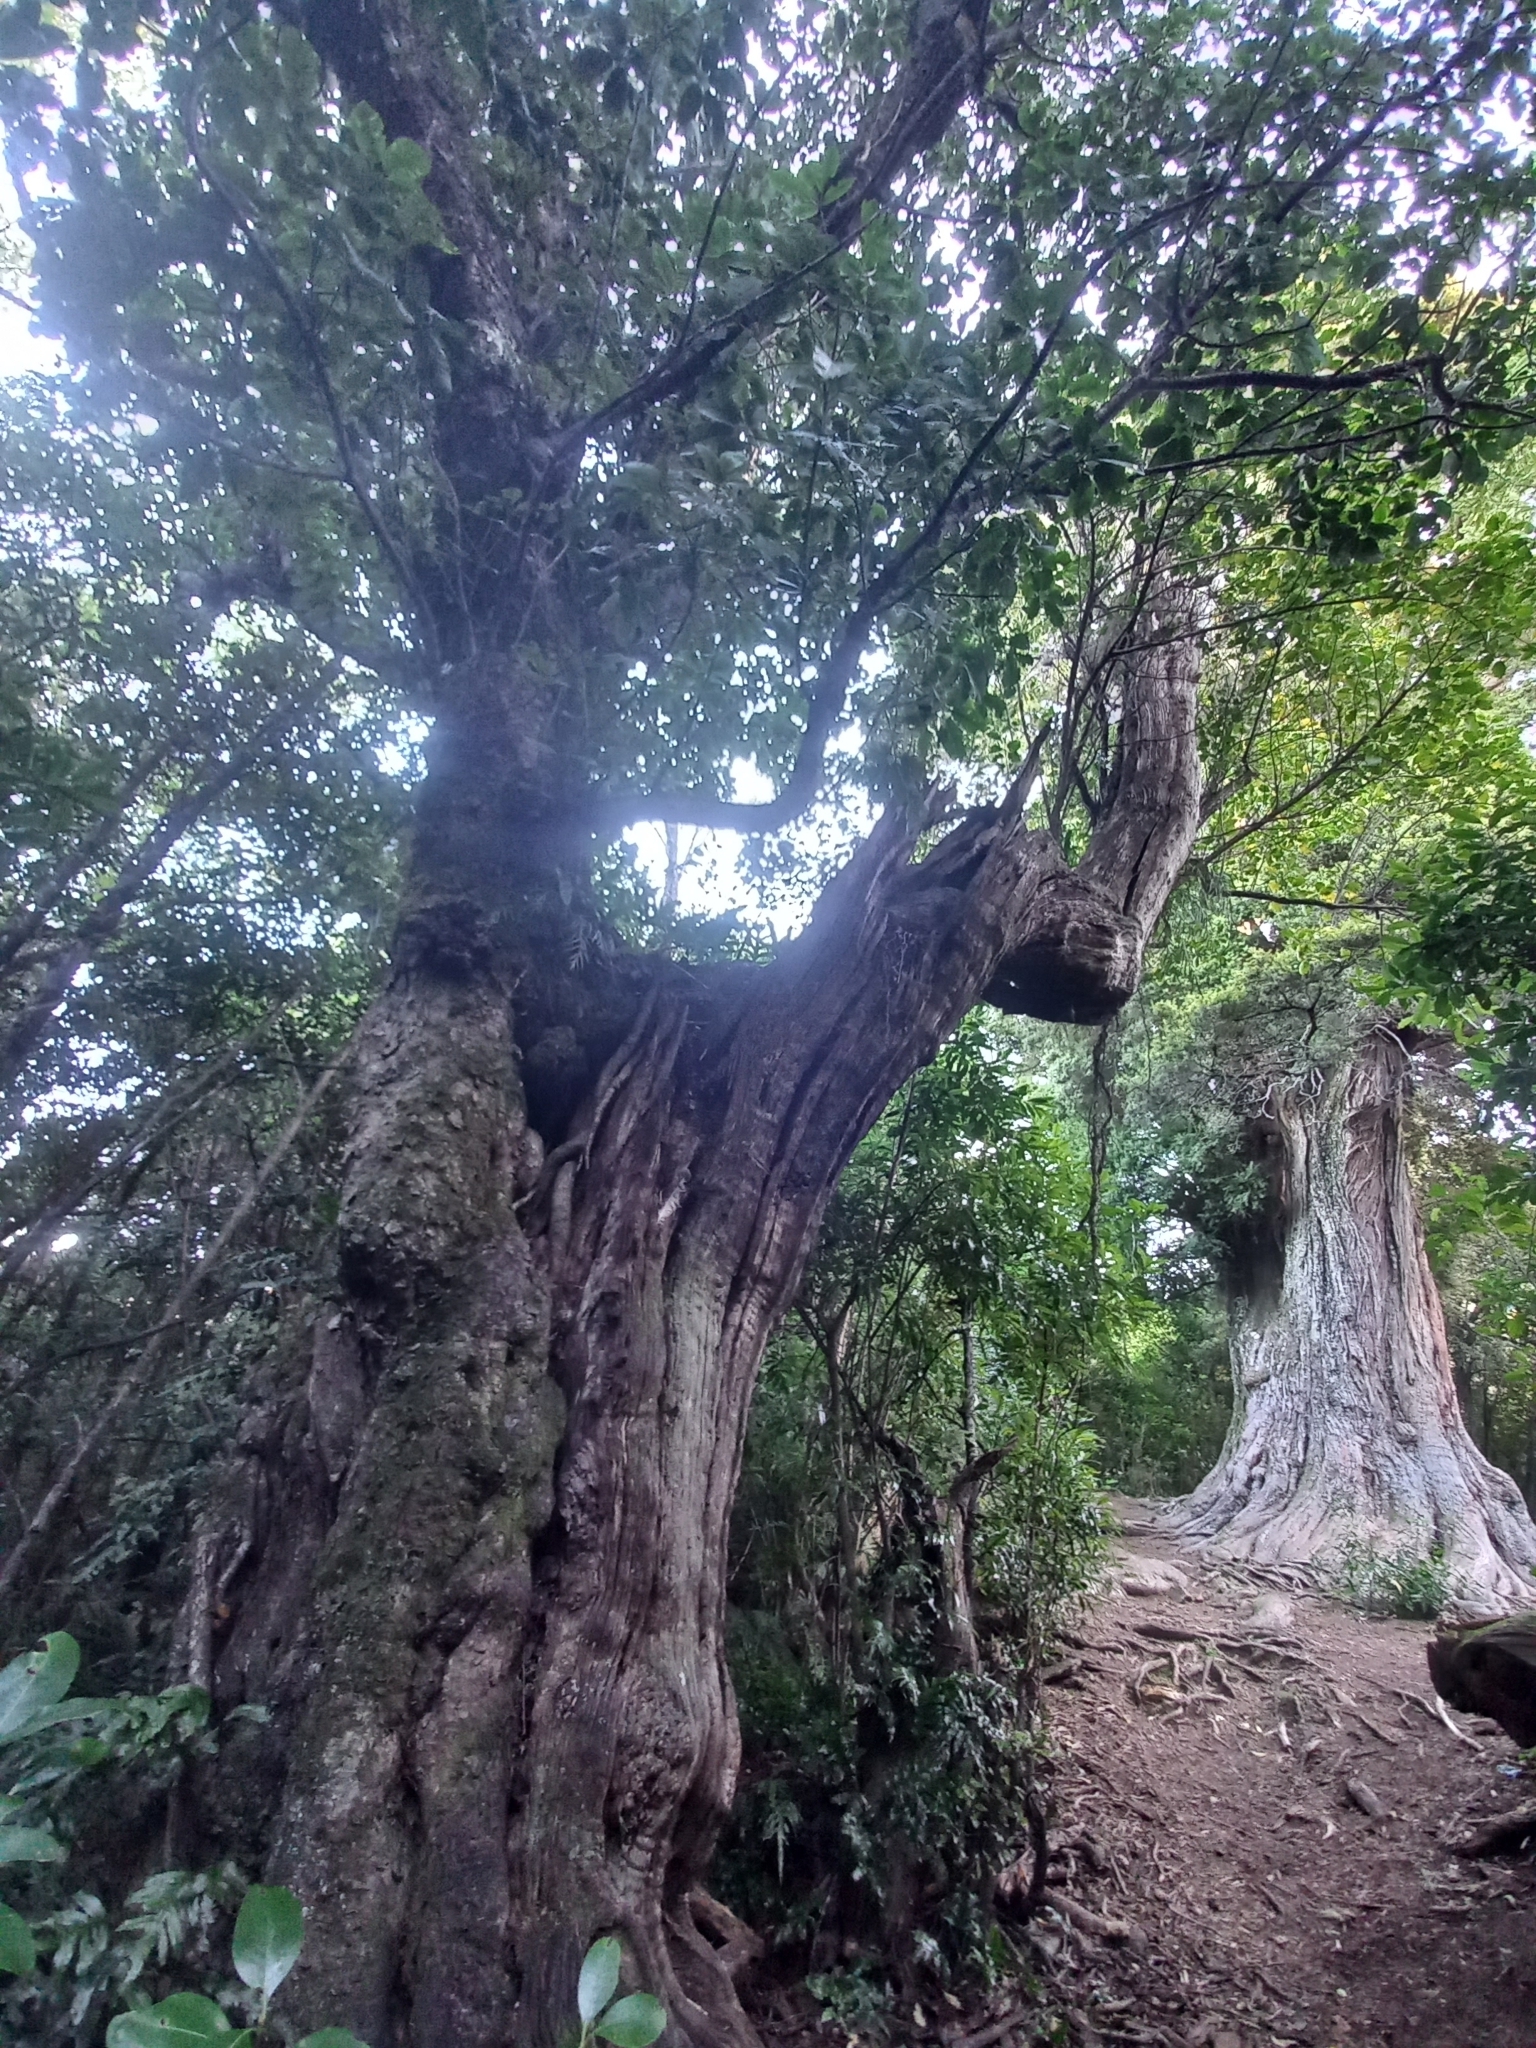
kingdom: Plantae
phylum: Tracheophyta
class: Magnoliopsida
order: Apiales
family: Griseliniaceae
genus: Griselinia
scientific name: Griselinia littoralis
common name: New zealand broadleaf
